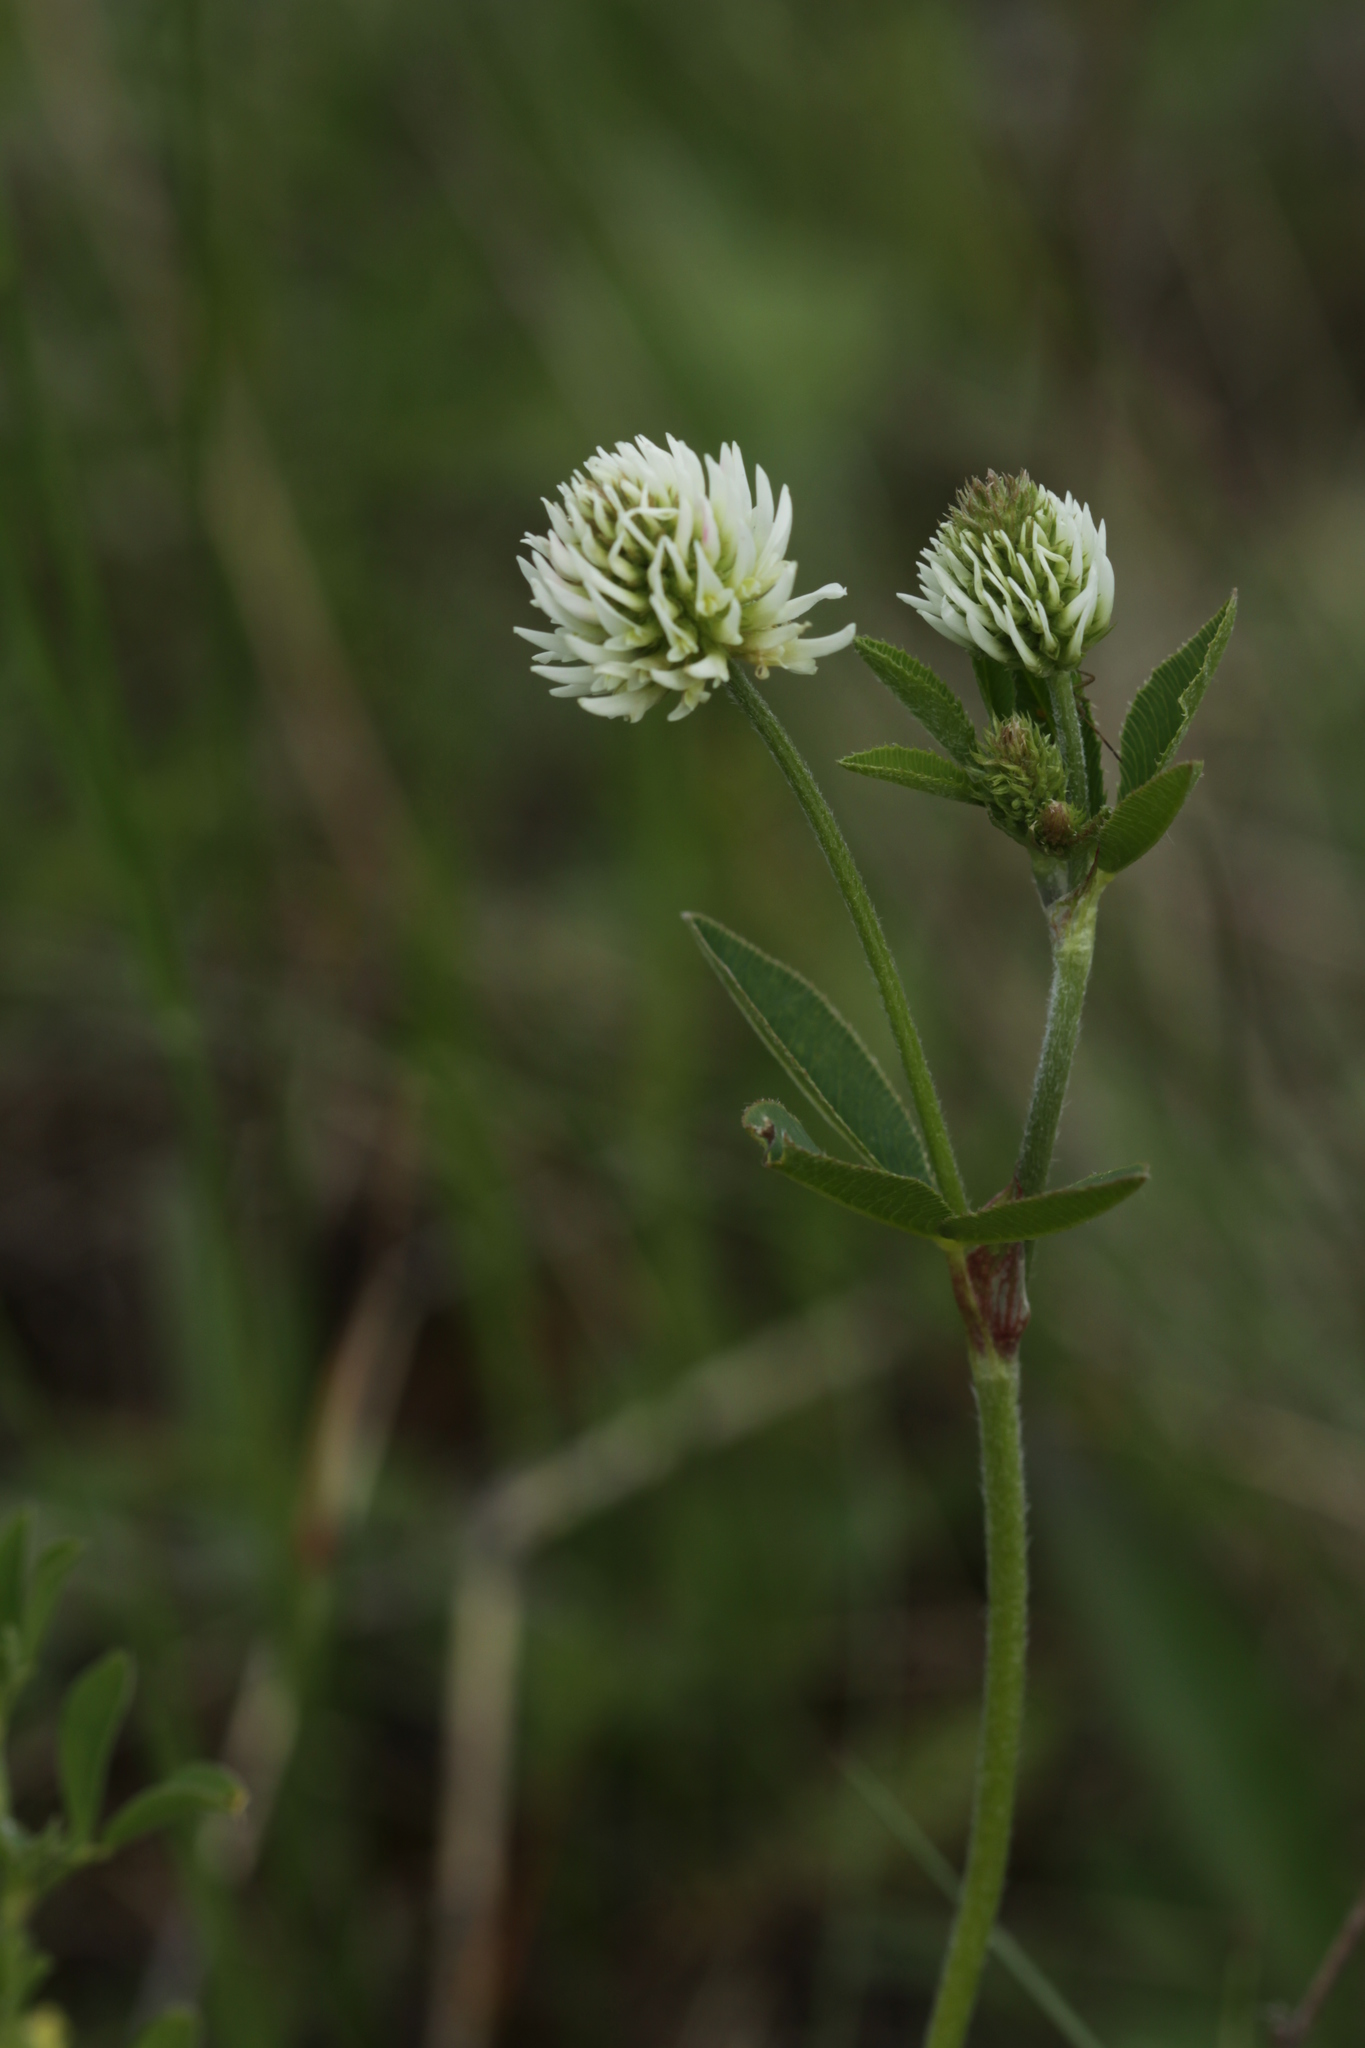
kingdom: Plantae
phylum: Tracheophyta
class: Magnoliopsida
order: Fabales
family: Fabaceae
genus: Trifolium
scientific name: Trifolium montanum
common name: Mountain clover
